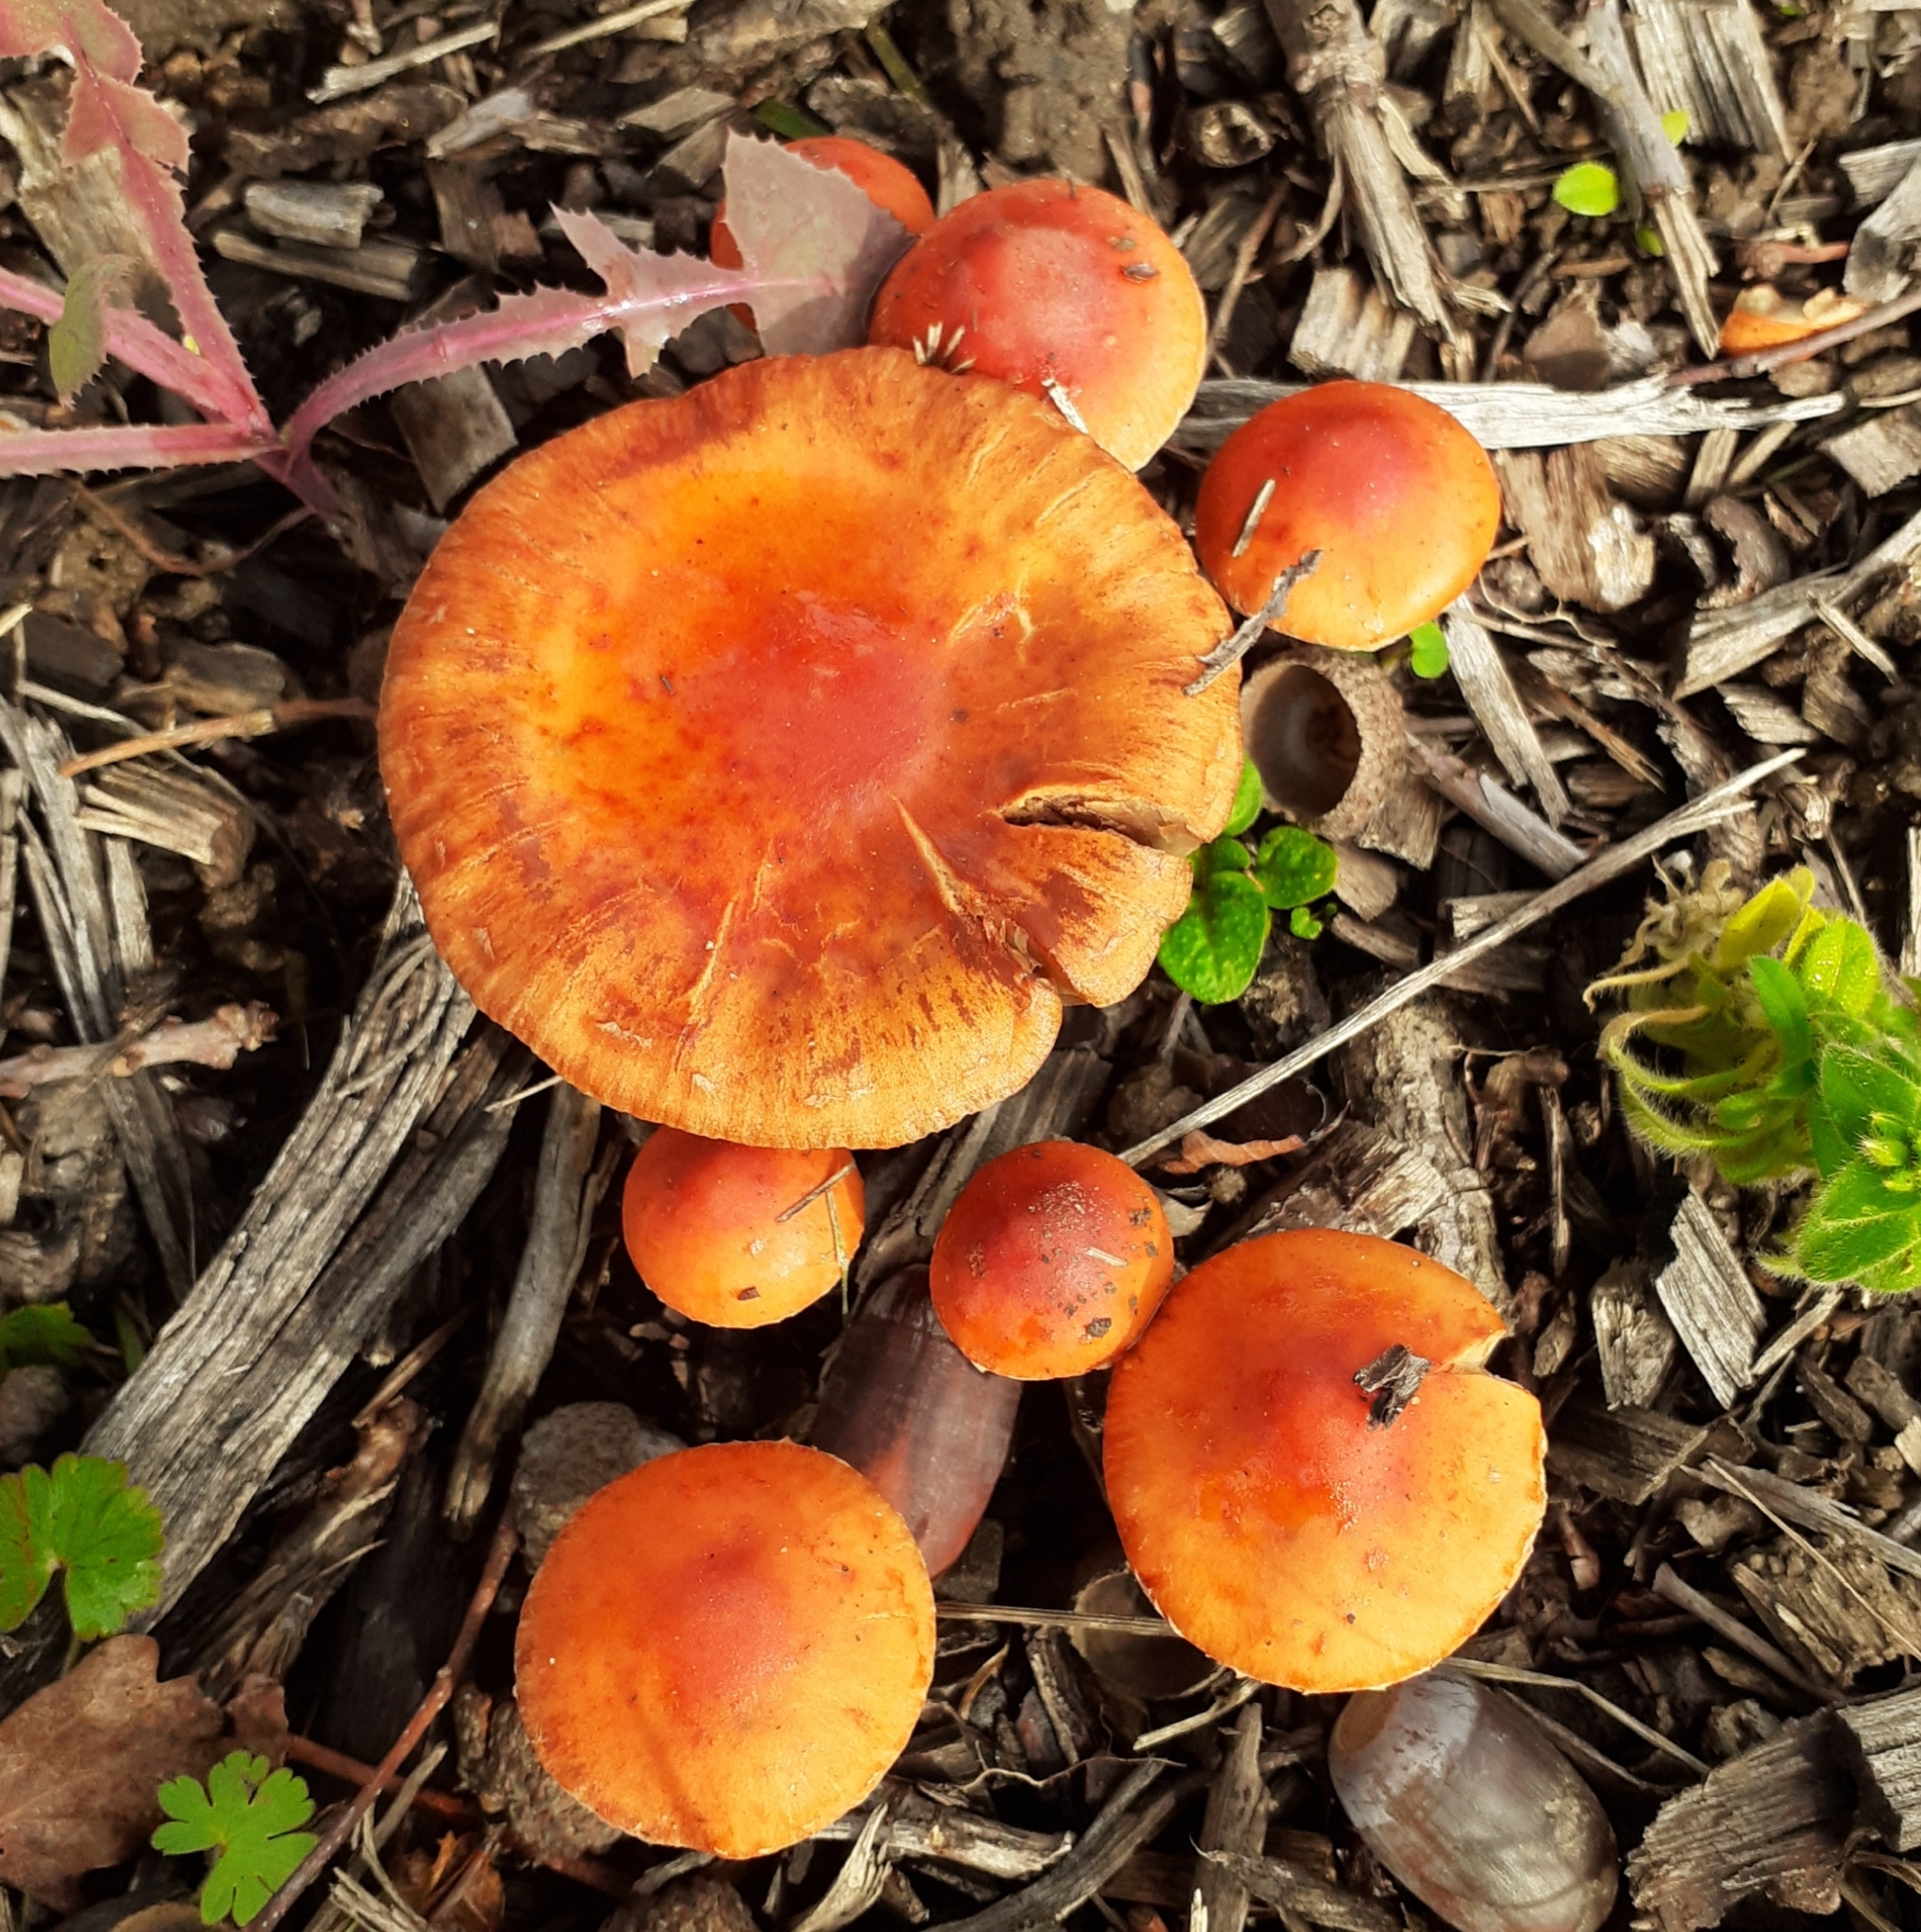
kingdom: Fungi
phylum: Basidiomycota
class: Agaricomycetes
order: Agaricales
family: Strophariaceae
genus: Leratiomyces
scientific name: Leratiomyces ceres
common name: Redlead roundhead
